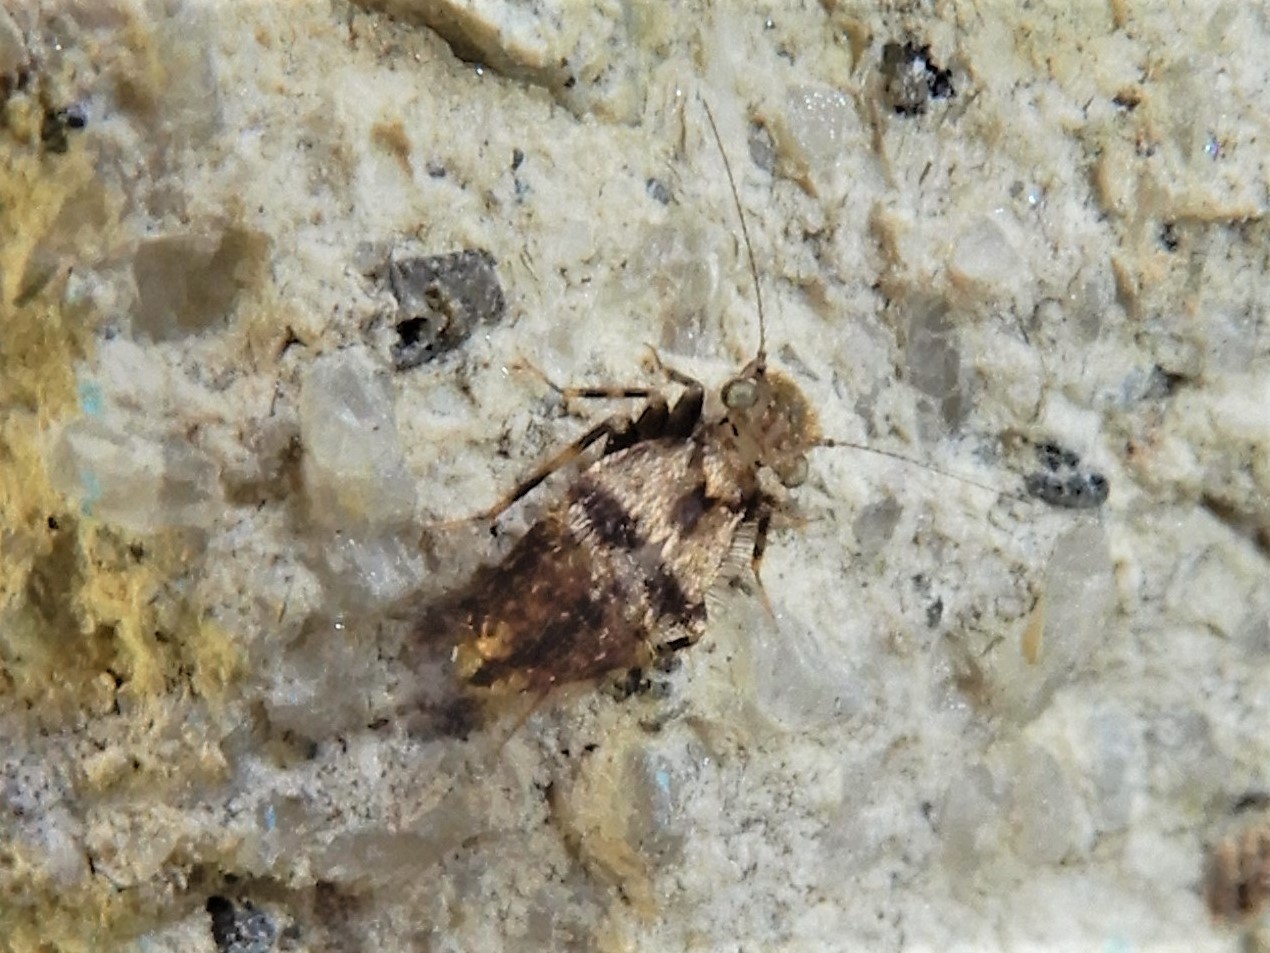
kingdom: Animalia
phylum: Arthropoda
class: Insecta
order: Psocodea
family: Lepidopsocidae
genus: Pteroxanium
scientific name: Pteroxanium kelloggi
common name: Bark lice
